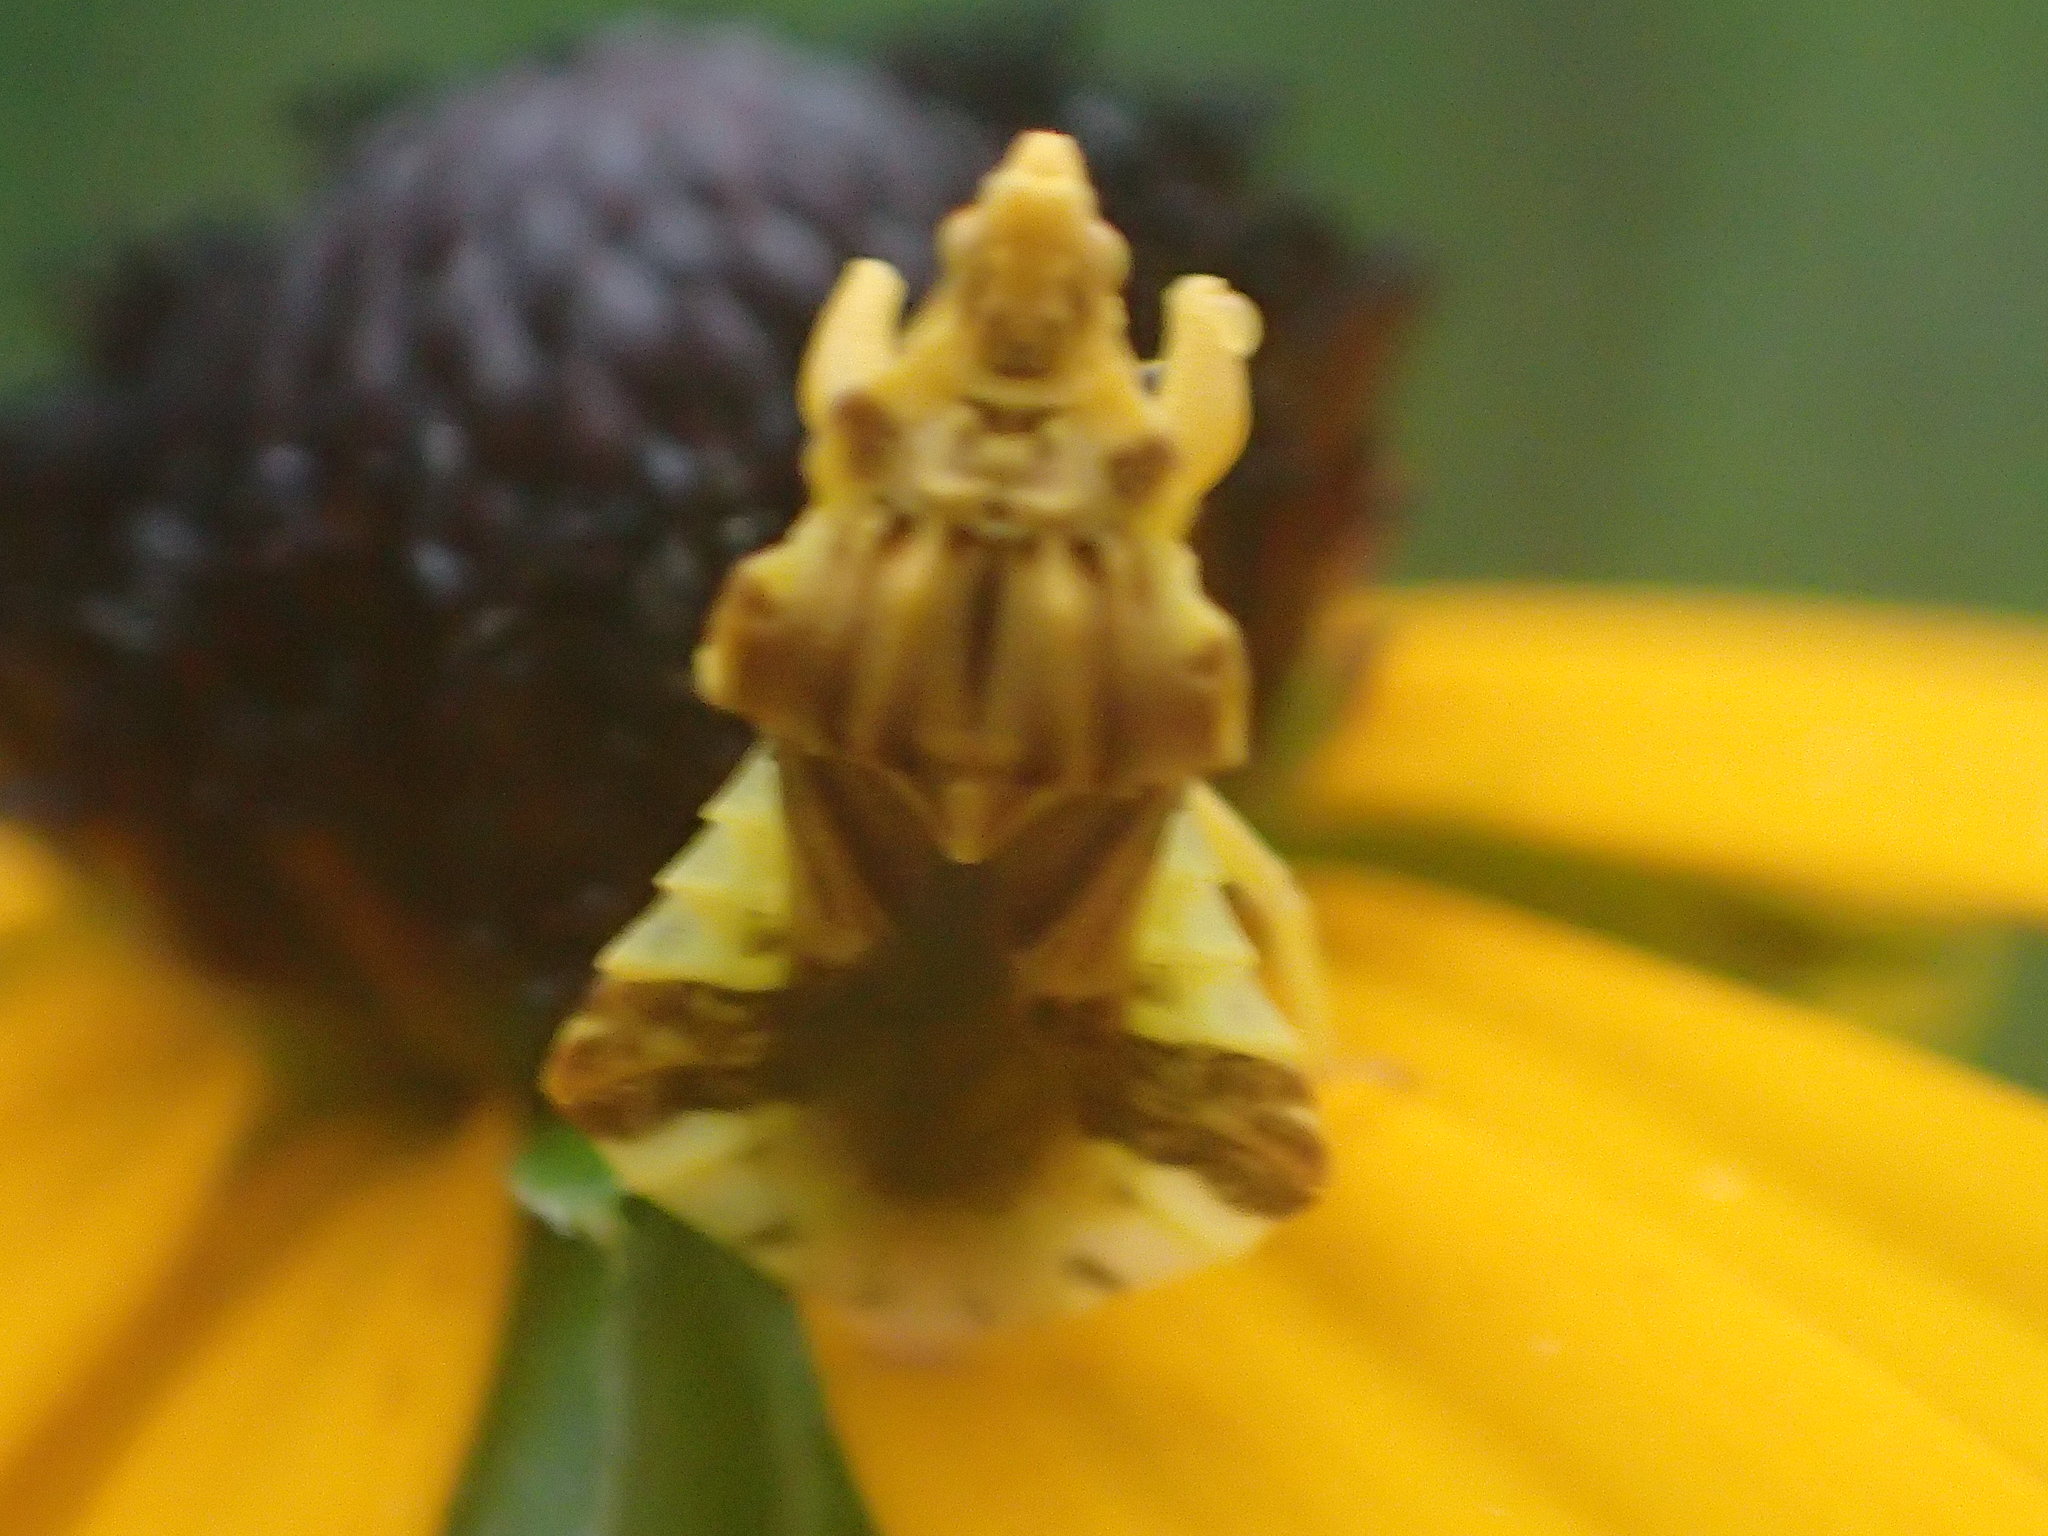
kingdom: Animalia
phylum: Arthropoda
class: Insecta
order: Hemiptera
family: Reduviidae
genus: Phymata
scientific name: Phymata fasciata
